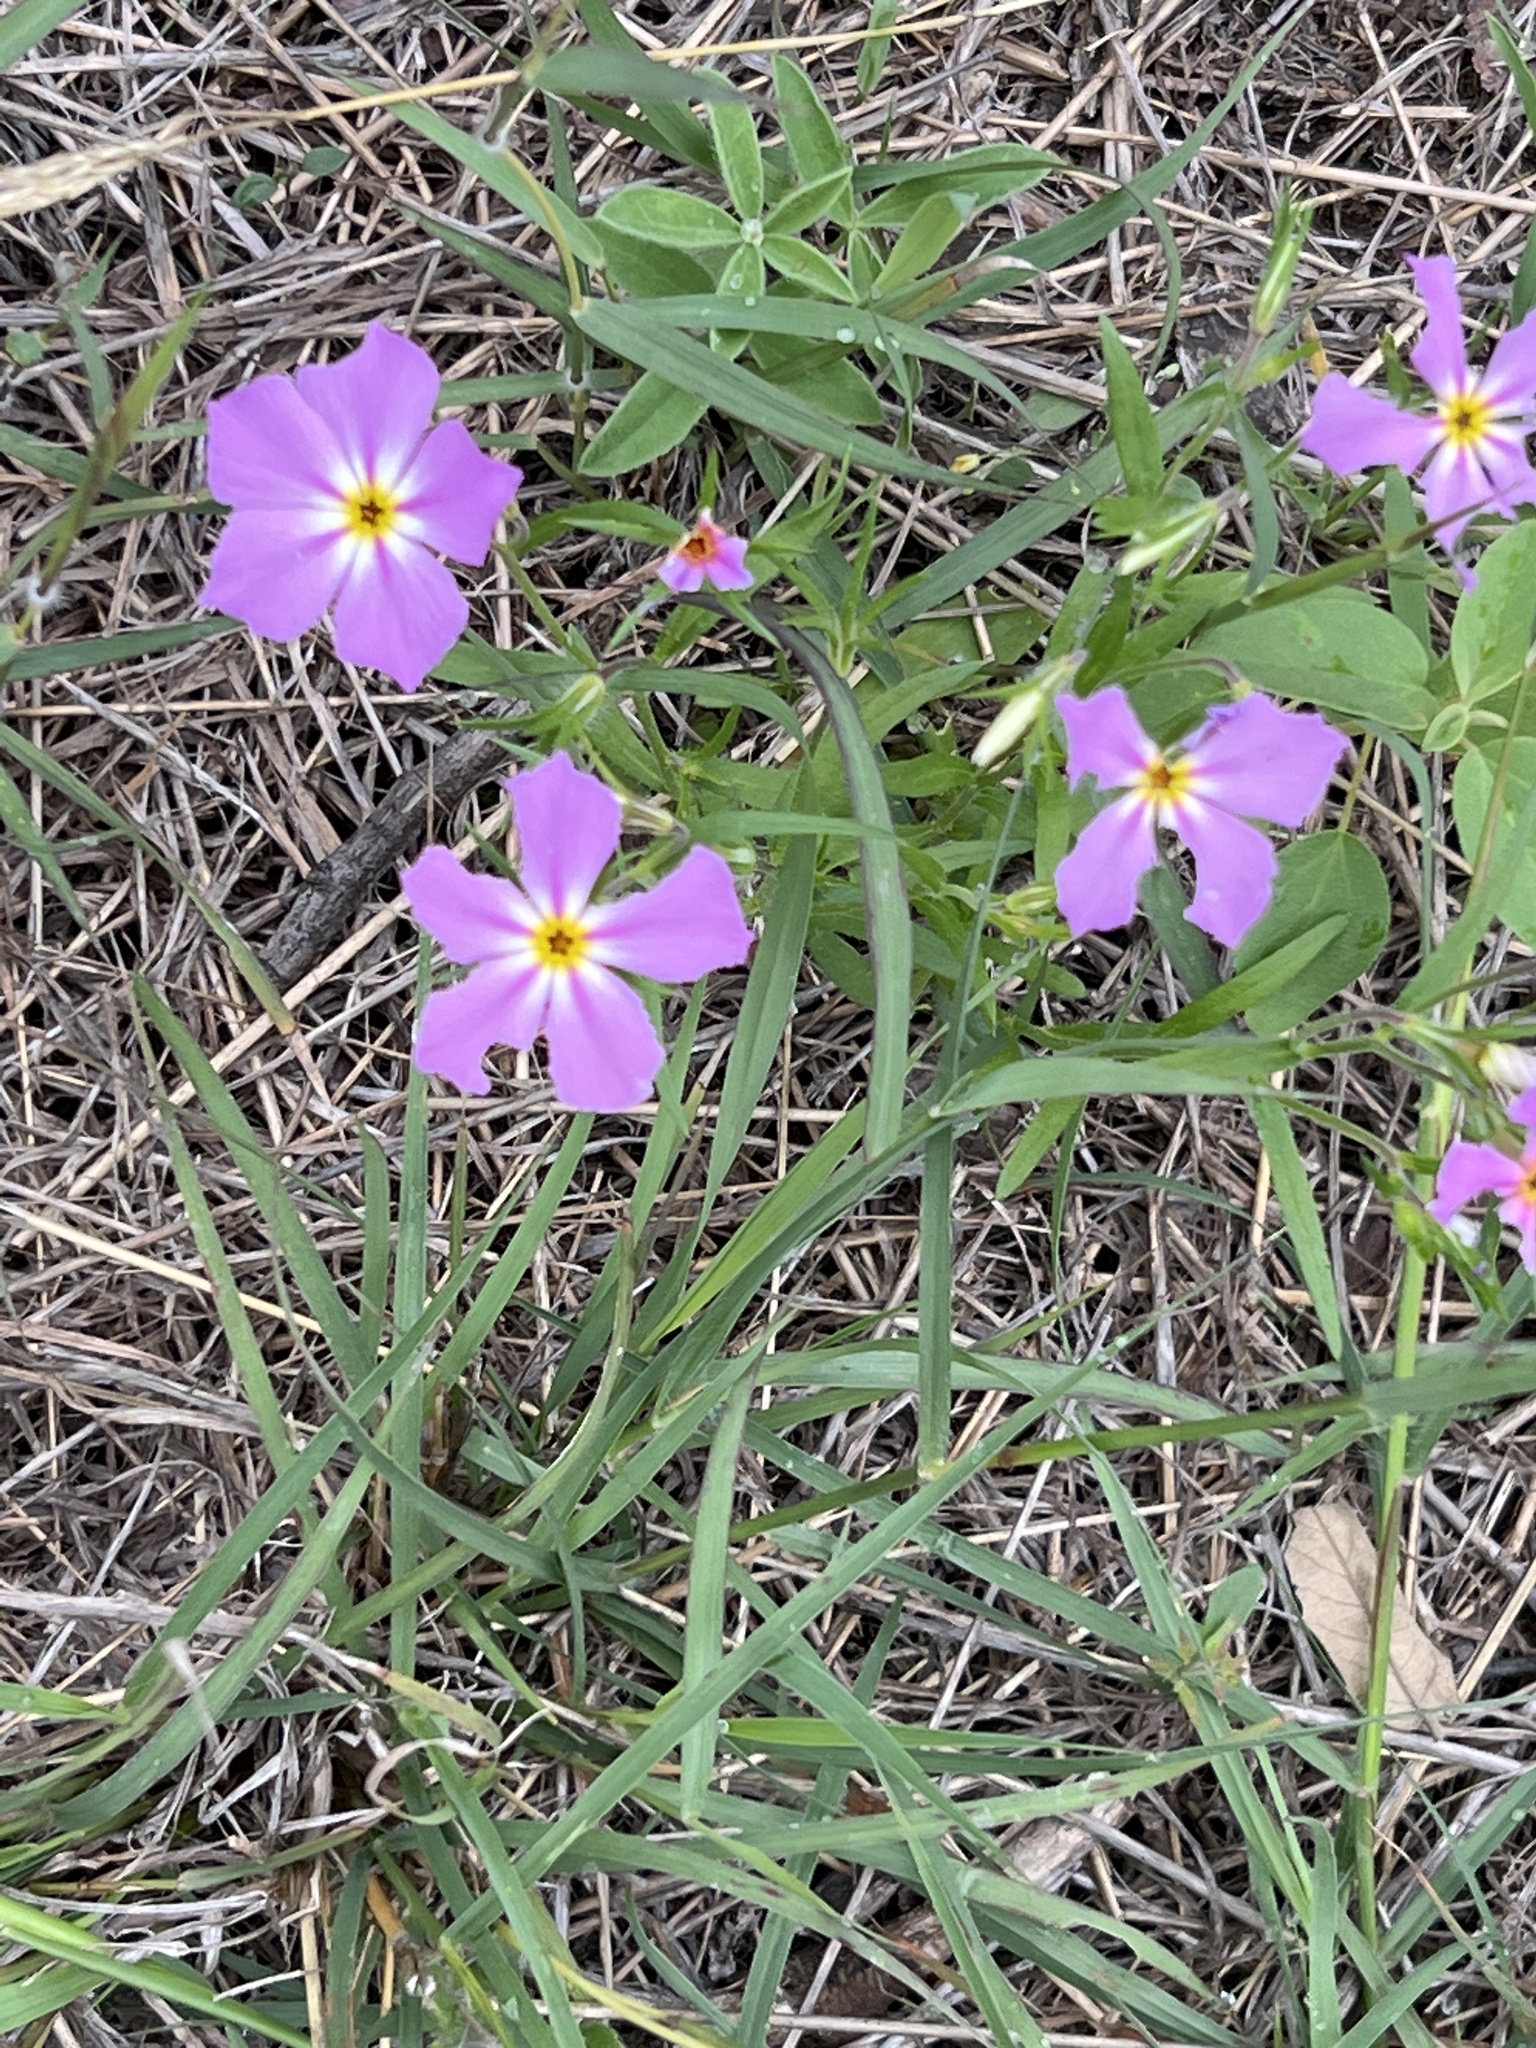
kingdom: Plantae
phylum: Tracheophyta
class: Magnoliopsida
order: Ericales
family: Polemoniaceae
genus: Phlox
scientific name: Phlox roemeriana
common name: Roemer's phlox
